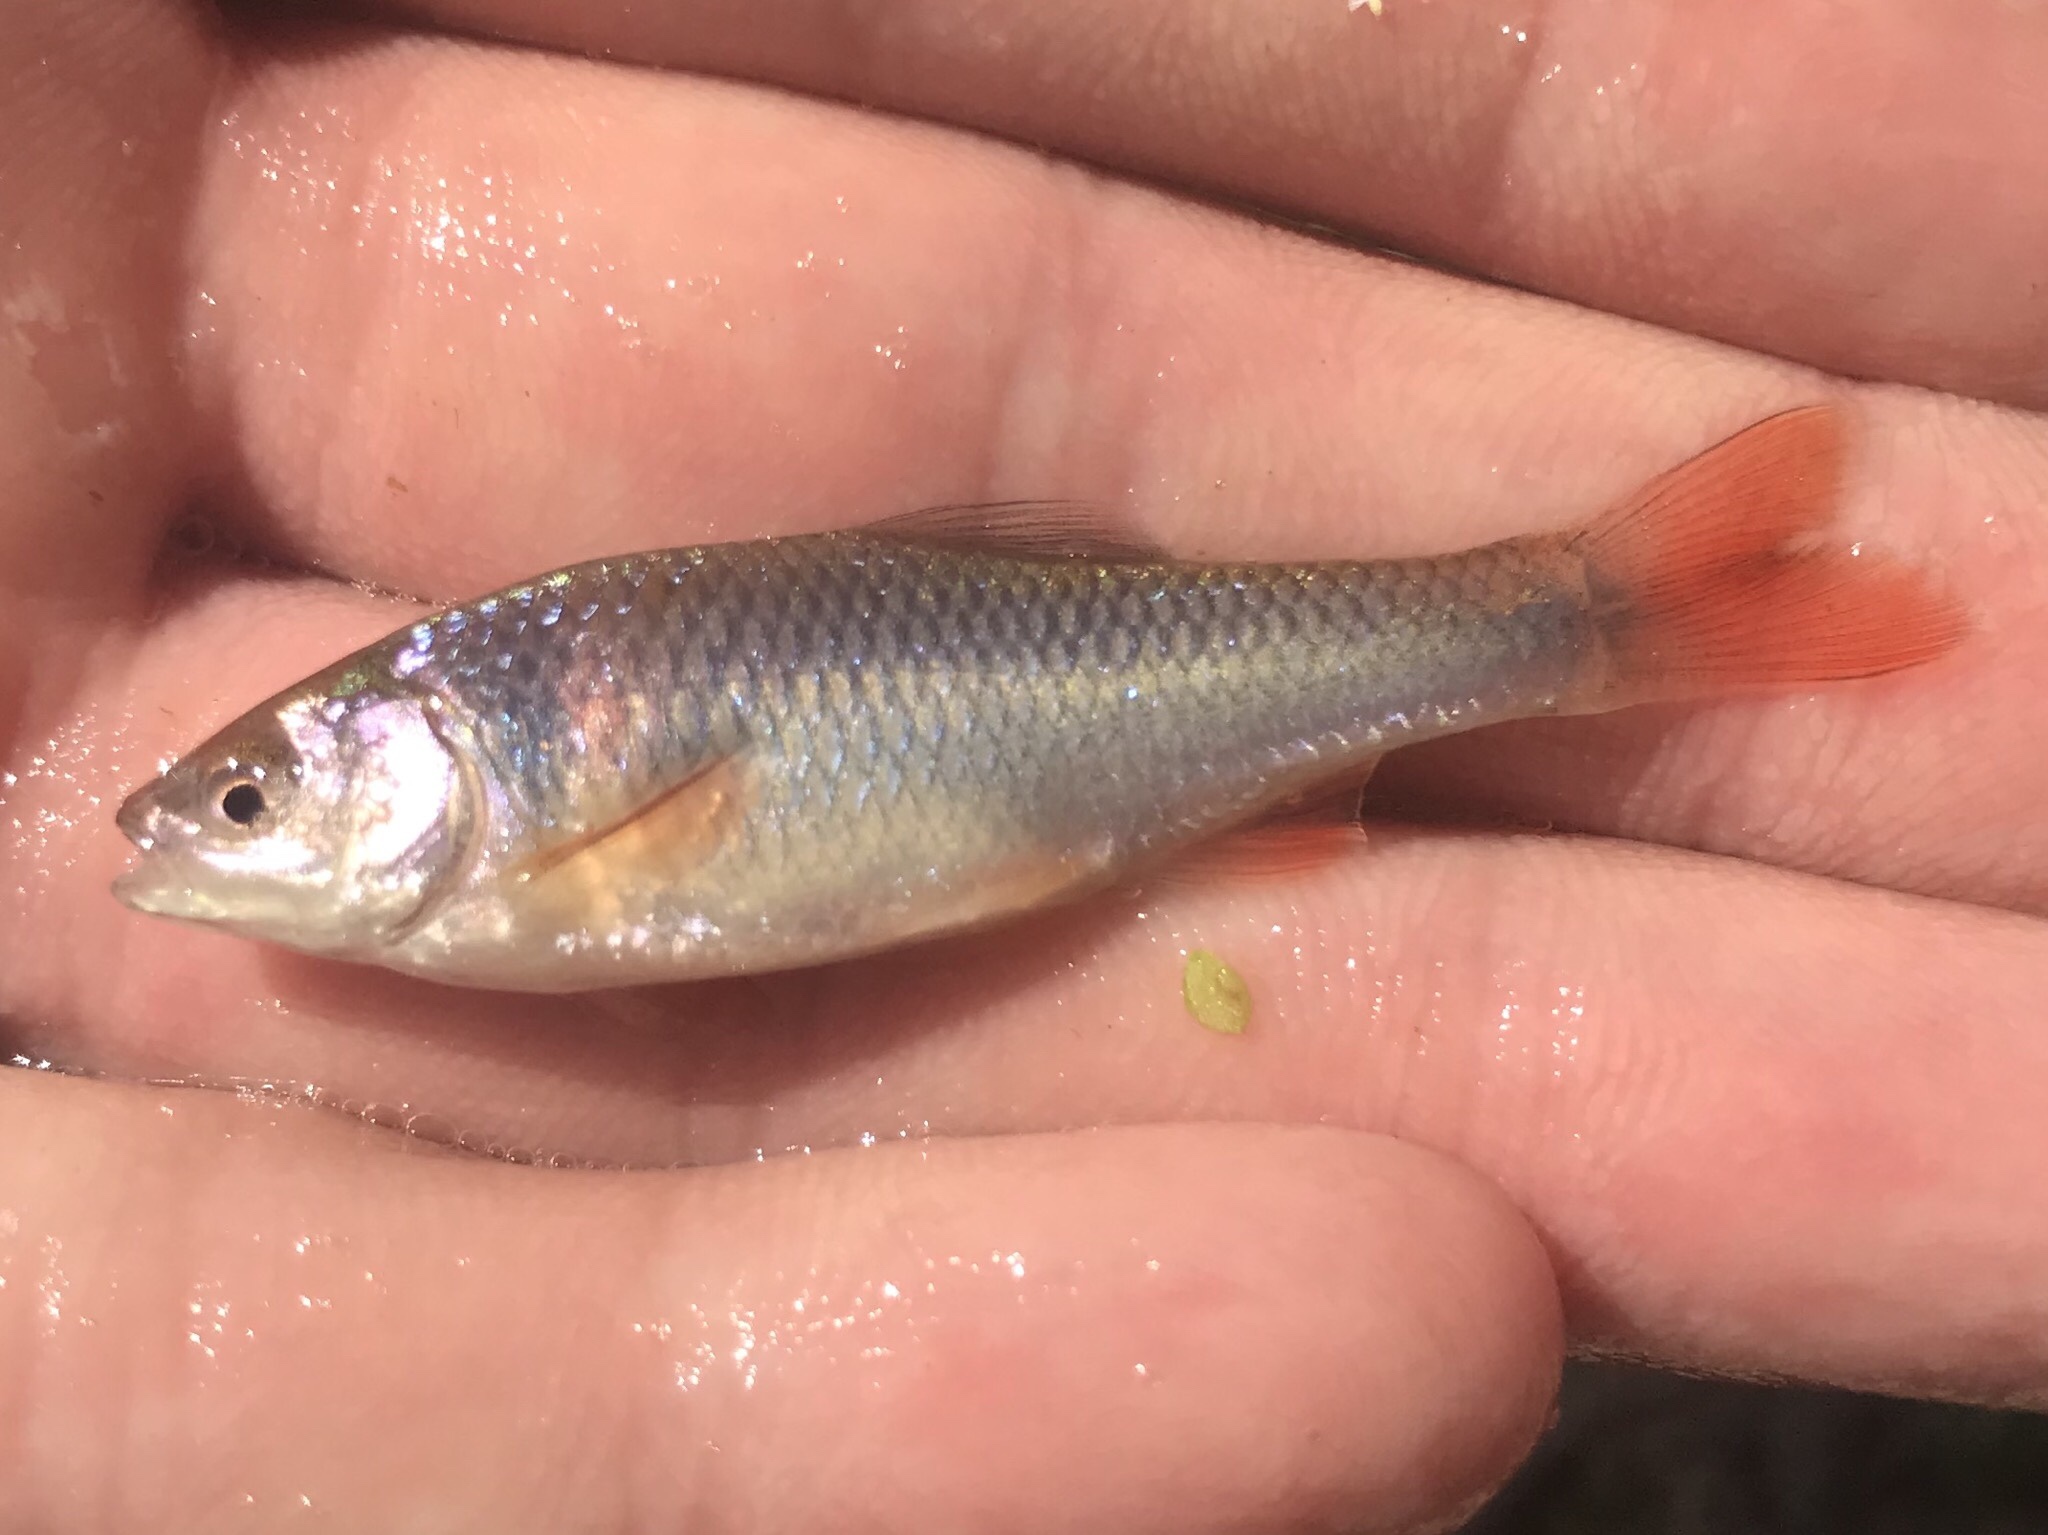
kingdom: Animalia
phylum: Chordata
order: Cypriniformes
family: Cyprinidae
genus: Cyprinella
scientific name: Cyprinella lutrensis
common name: Red shiner
